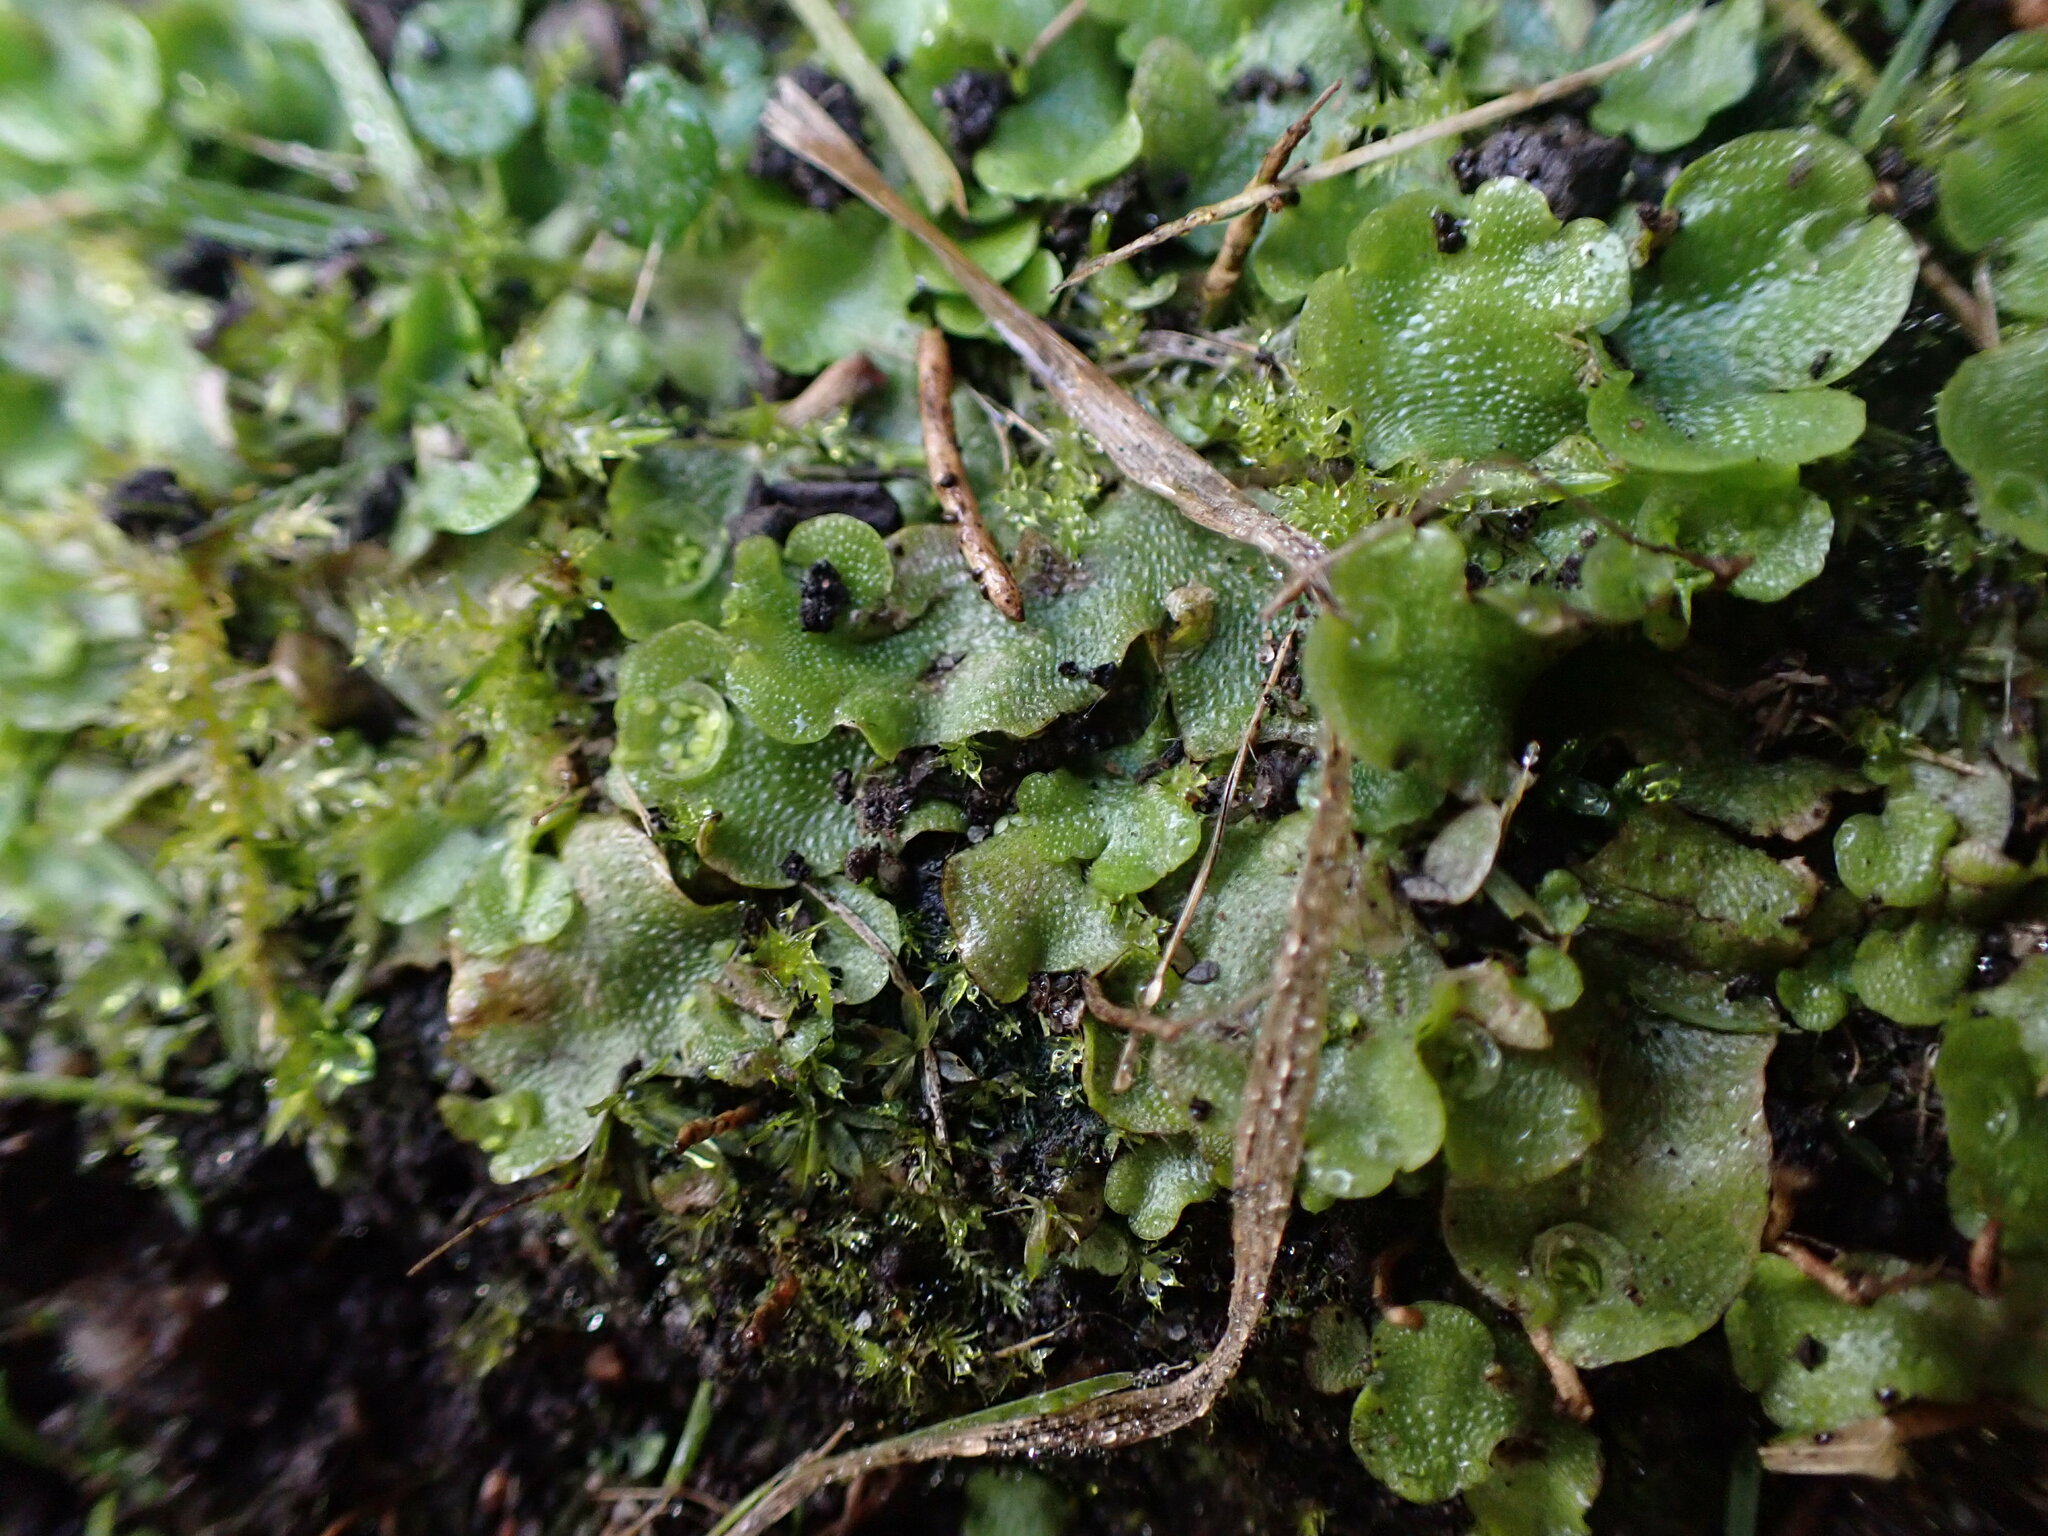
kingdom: Plantae
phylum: Marchantiophyta
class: Marchantiopsida
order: Lunulariales
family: Lunulariaceae
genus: Lunularia
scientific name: Lunularia cruciata
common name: Crescent-cup liverwort
